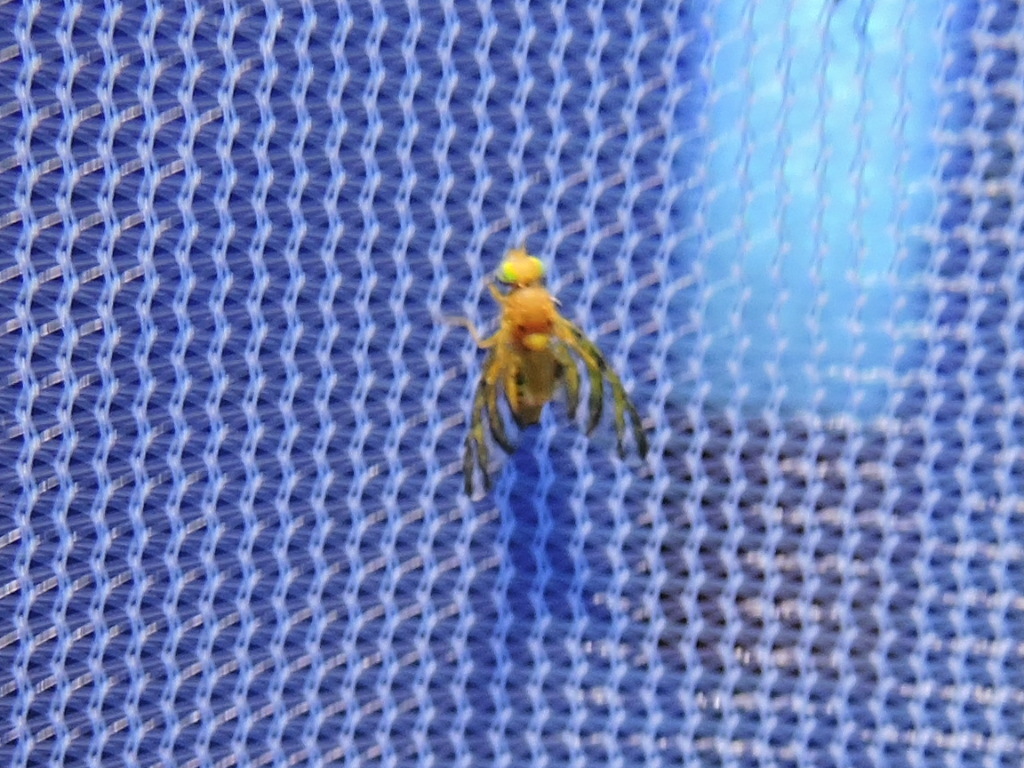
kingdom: Animalia
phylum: Arthropoda
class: Insecta
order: Diptera
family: Tephritidae
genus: Tomoplagia
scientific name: Tomoplagia cressoni
